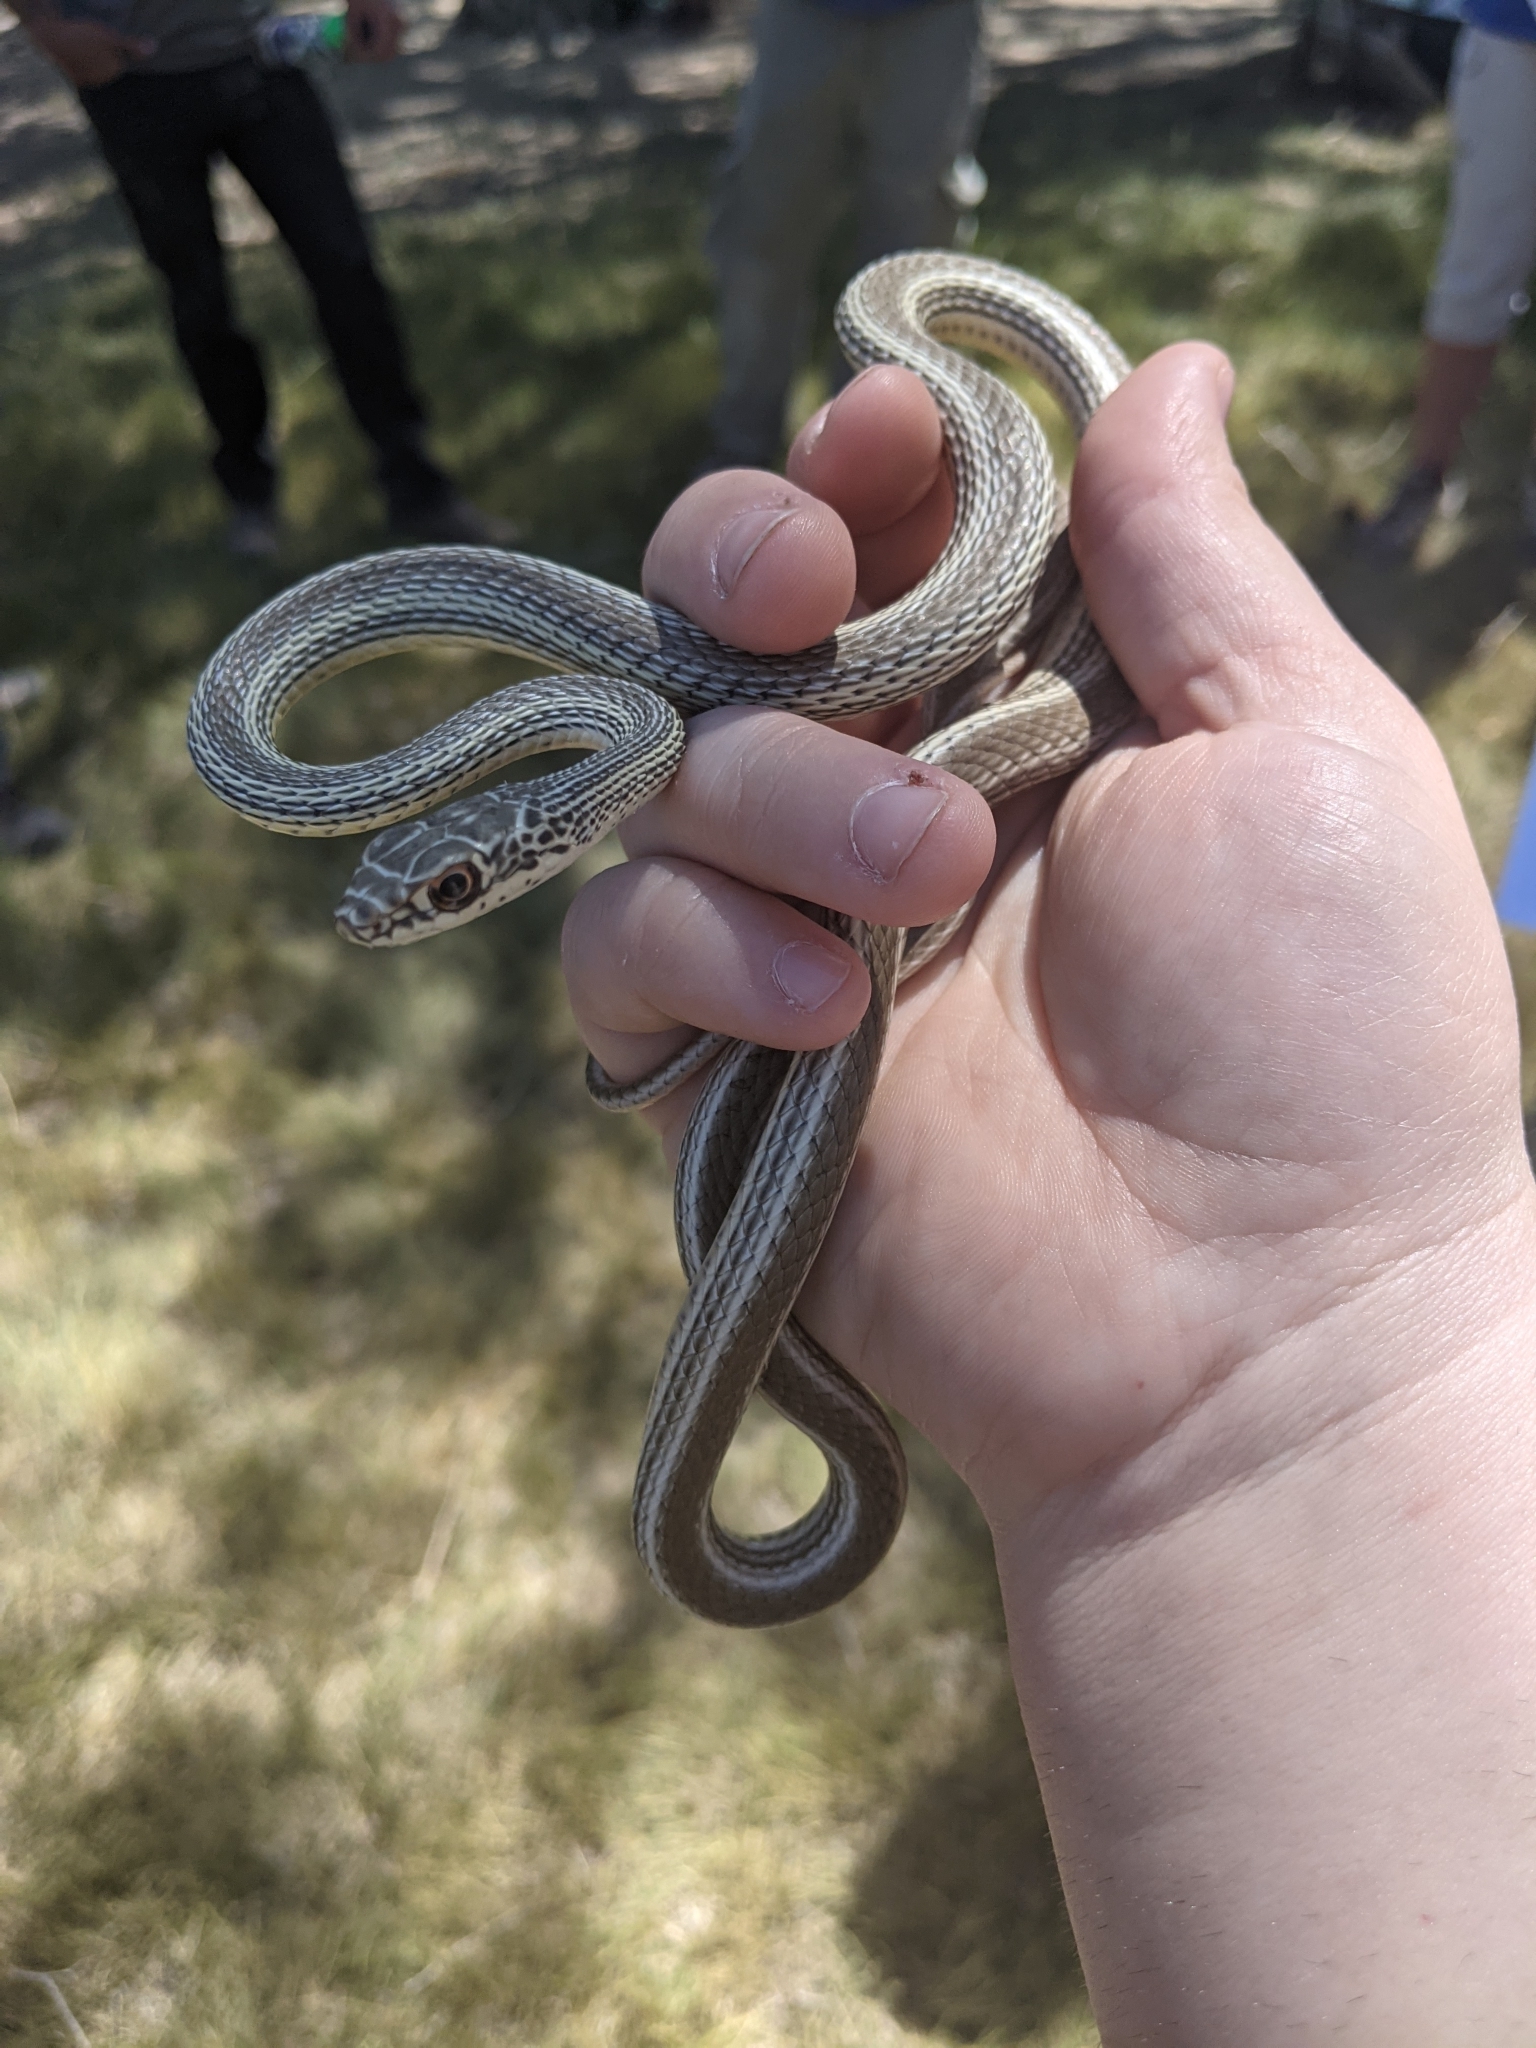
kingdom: Animalia
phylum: Chordata
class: Squamata
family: Colubridae
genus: Masticophis
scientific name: Masticophis taeniatus
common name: Striped whipsnake
